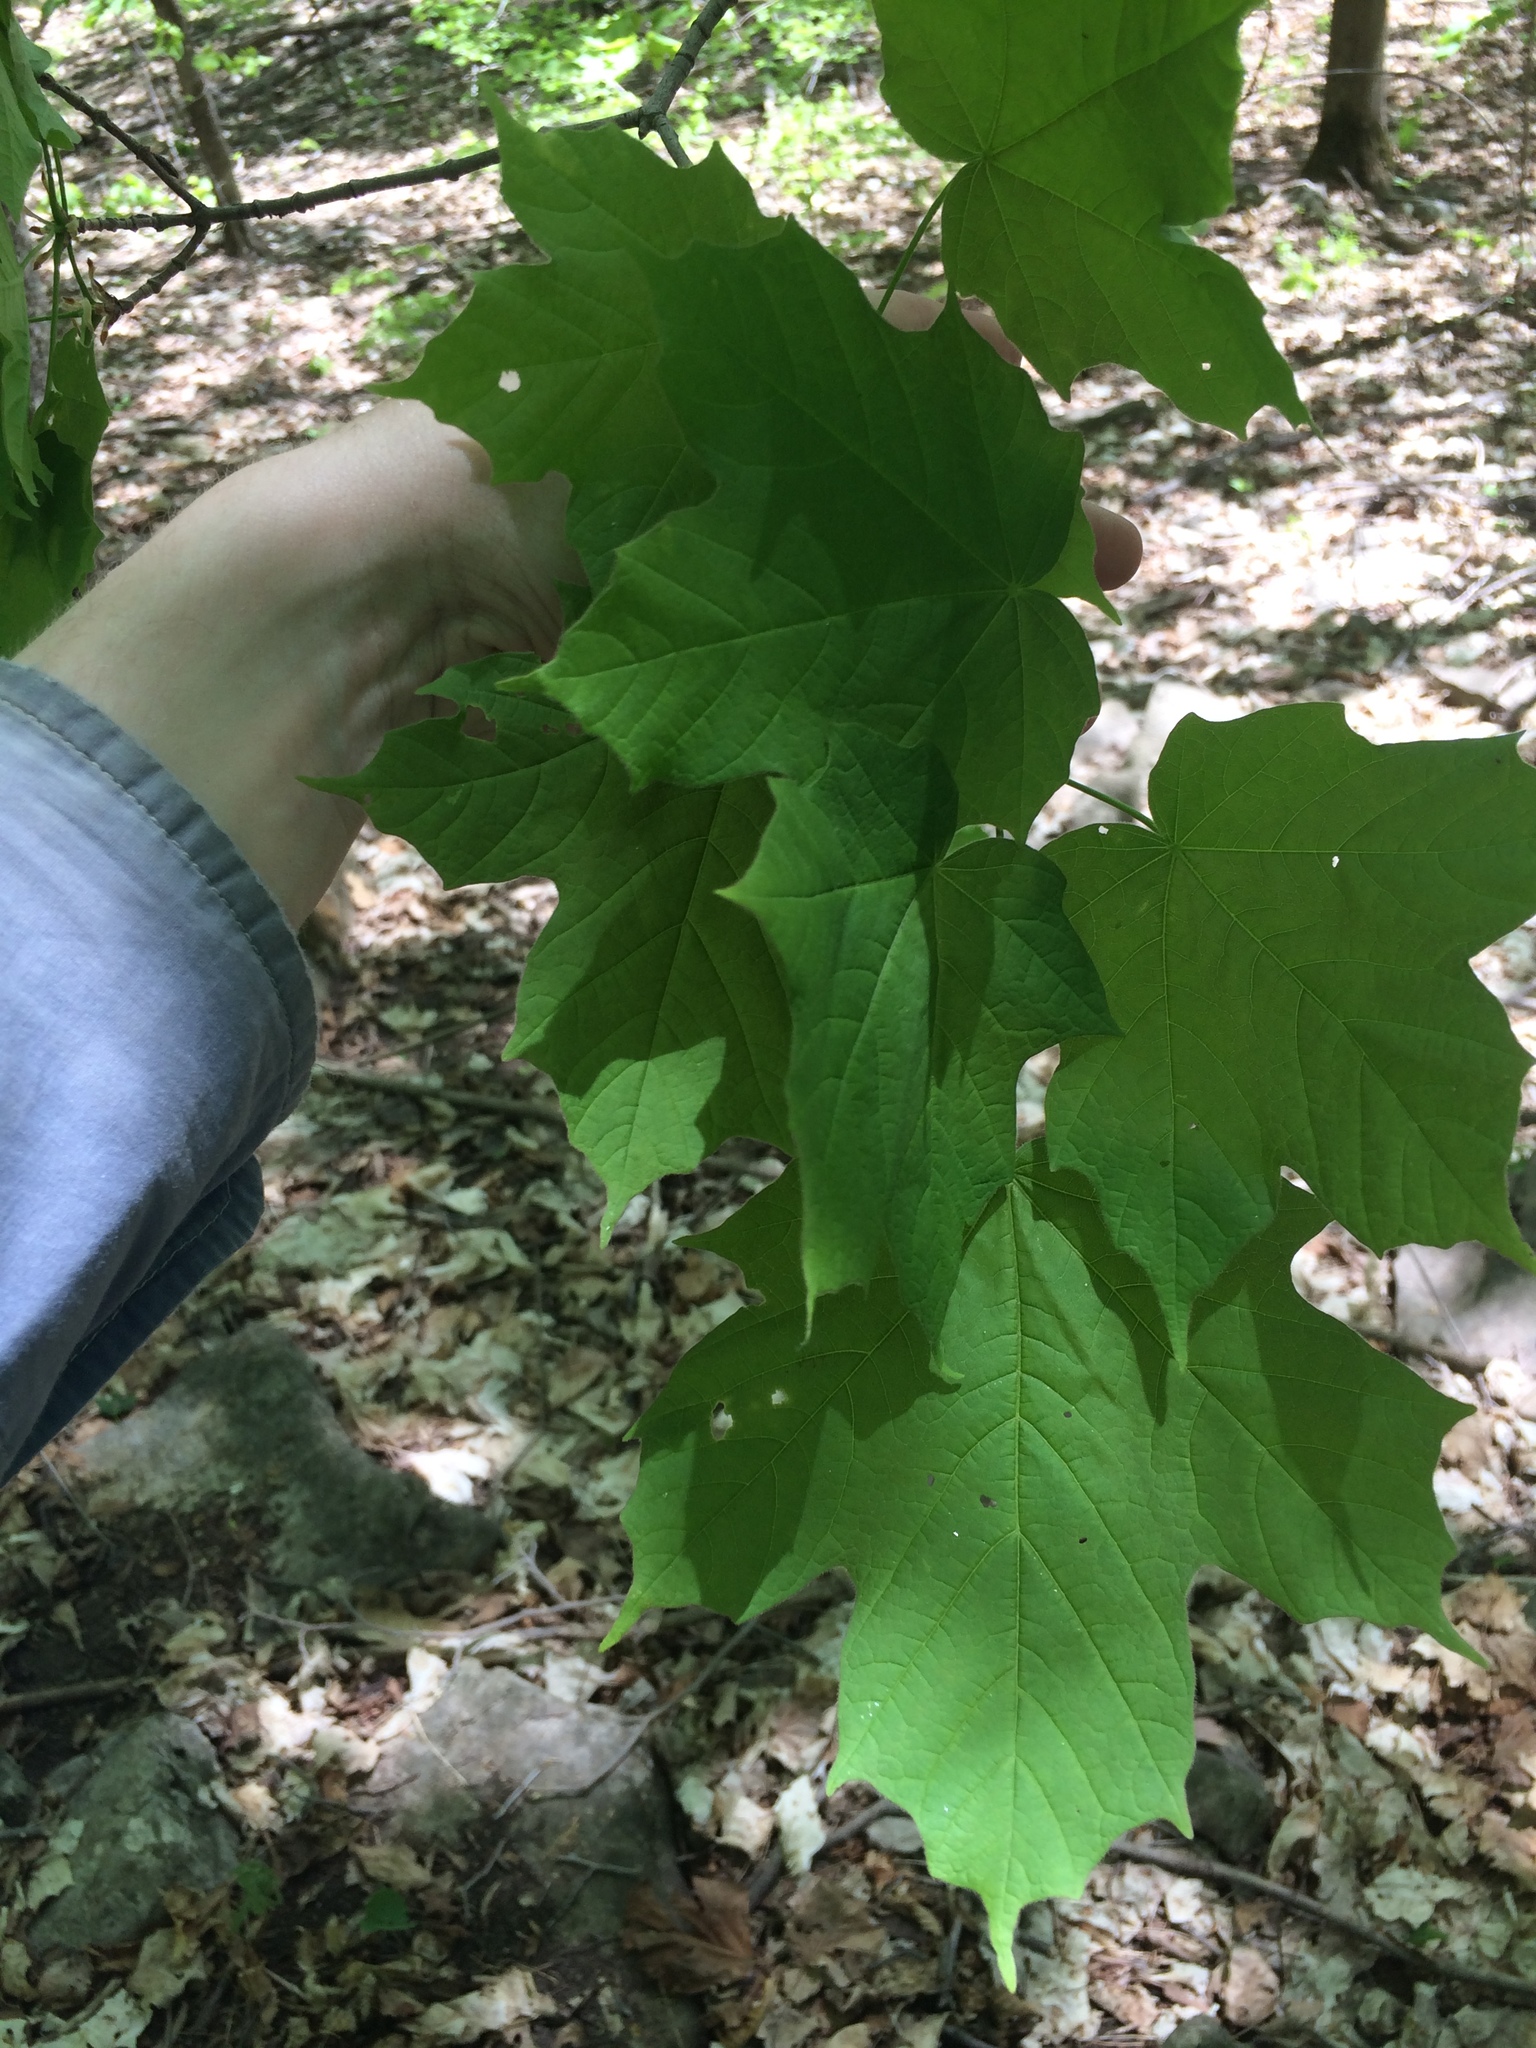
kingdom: Plantae
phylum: Tracheophyta
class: Magnoliopsida
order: Sapindales
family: Sapindaceae
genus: Acer
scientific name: Acer nigrum
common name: Black maple
